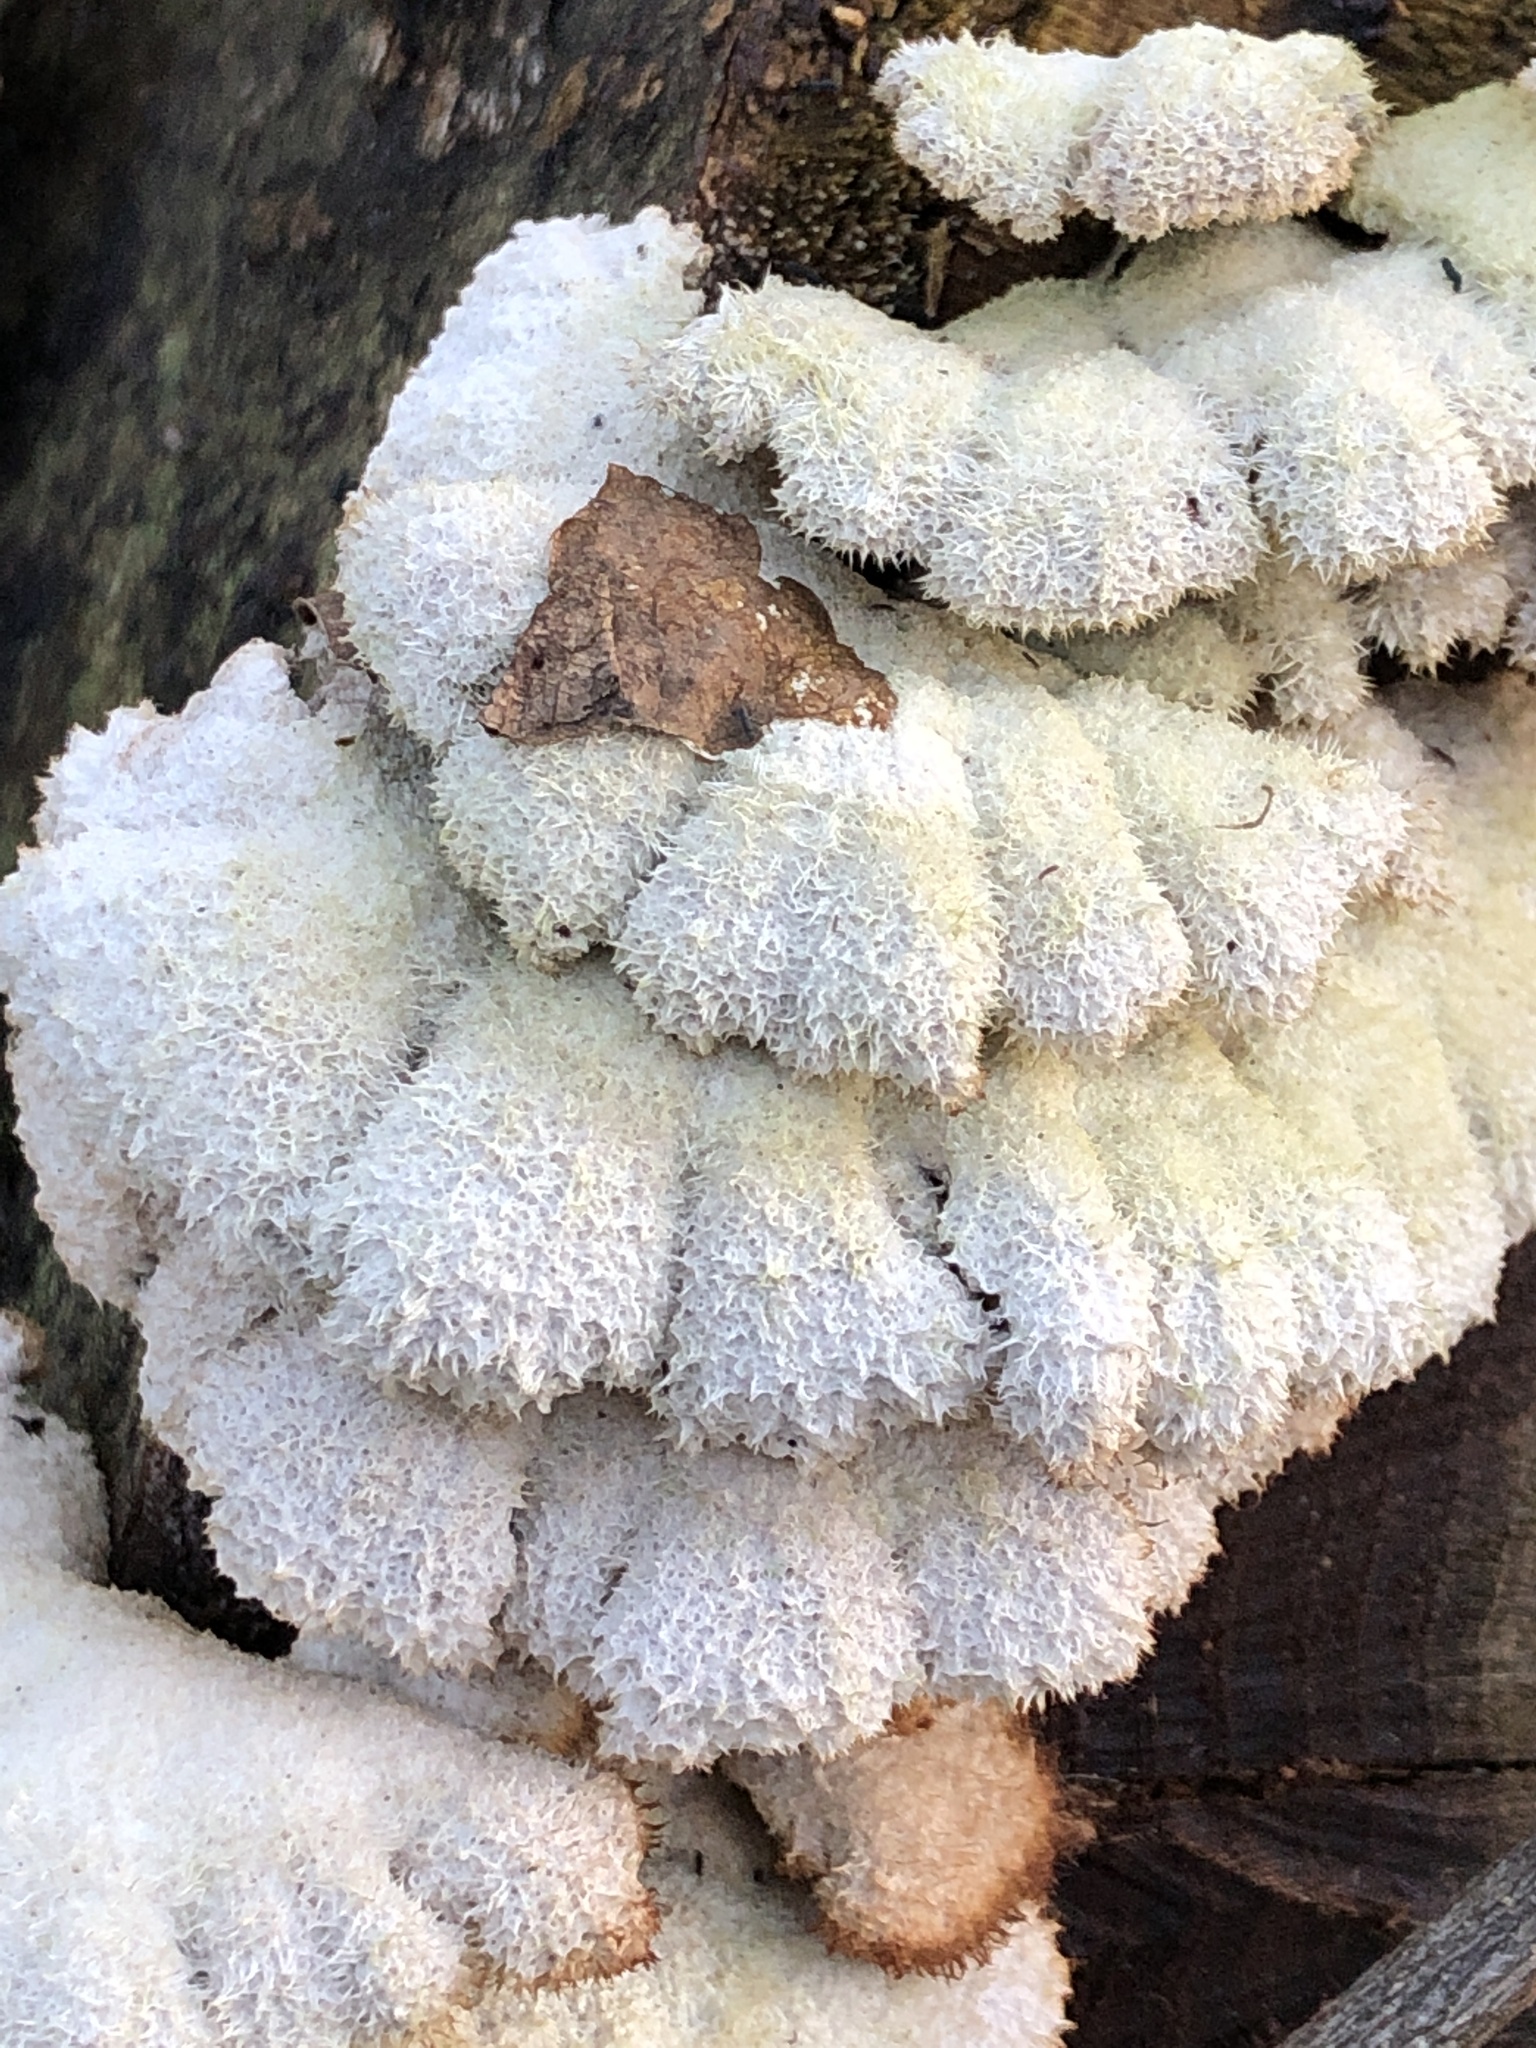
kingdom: Fungi
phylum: Basidiomycota
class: Agaricomycetes
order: Agaricales
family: Schizophyllaceae
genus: Schizophyllum
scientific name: Schizophyllum commune
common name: Common porecrust
